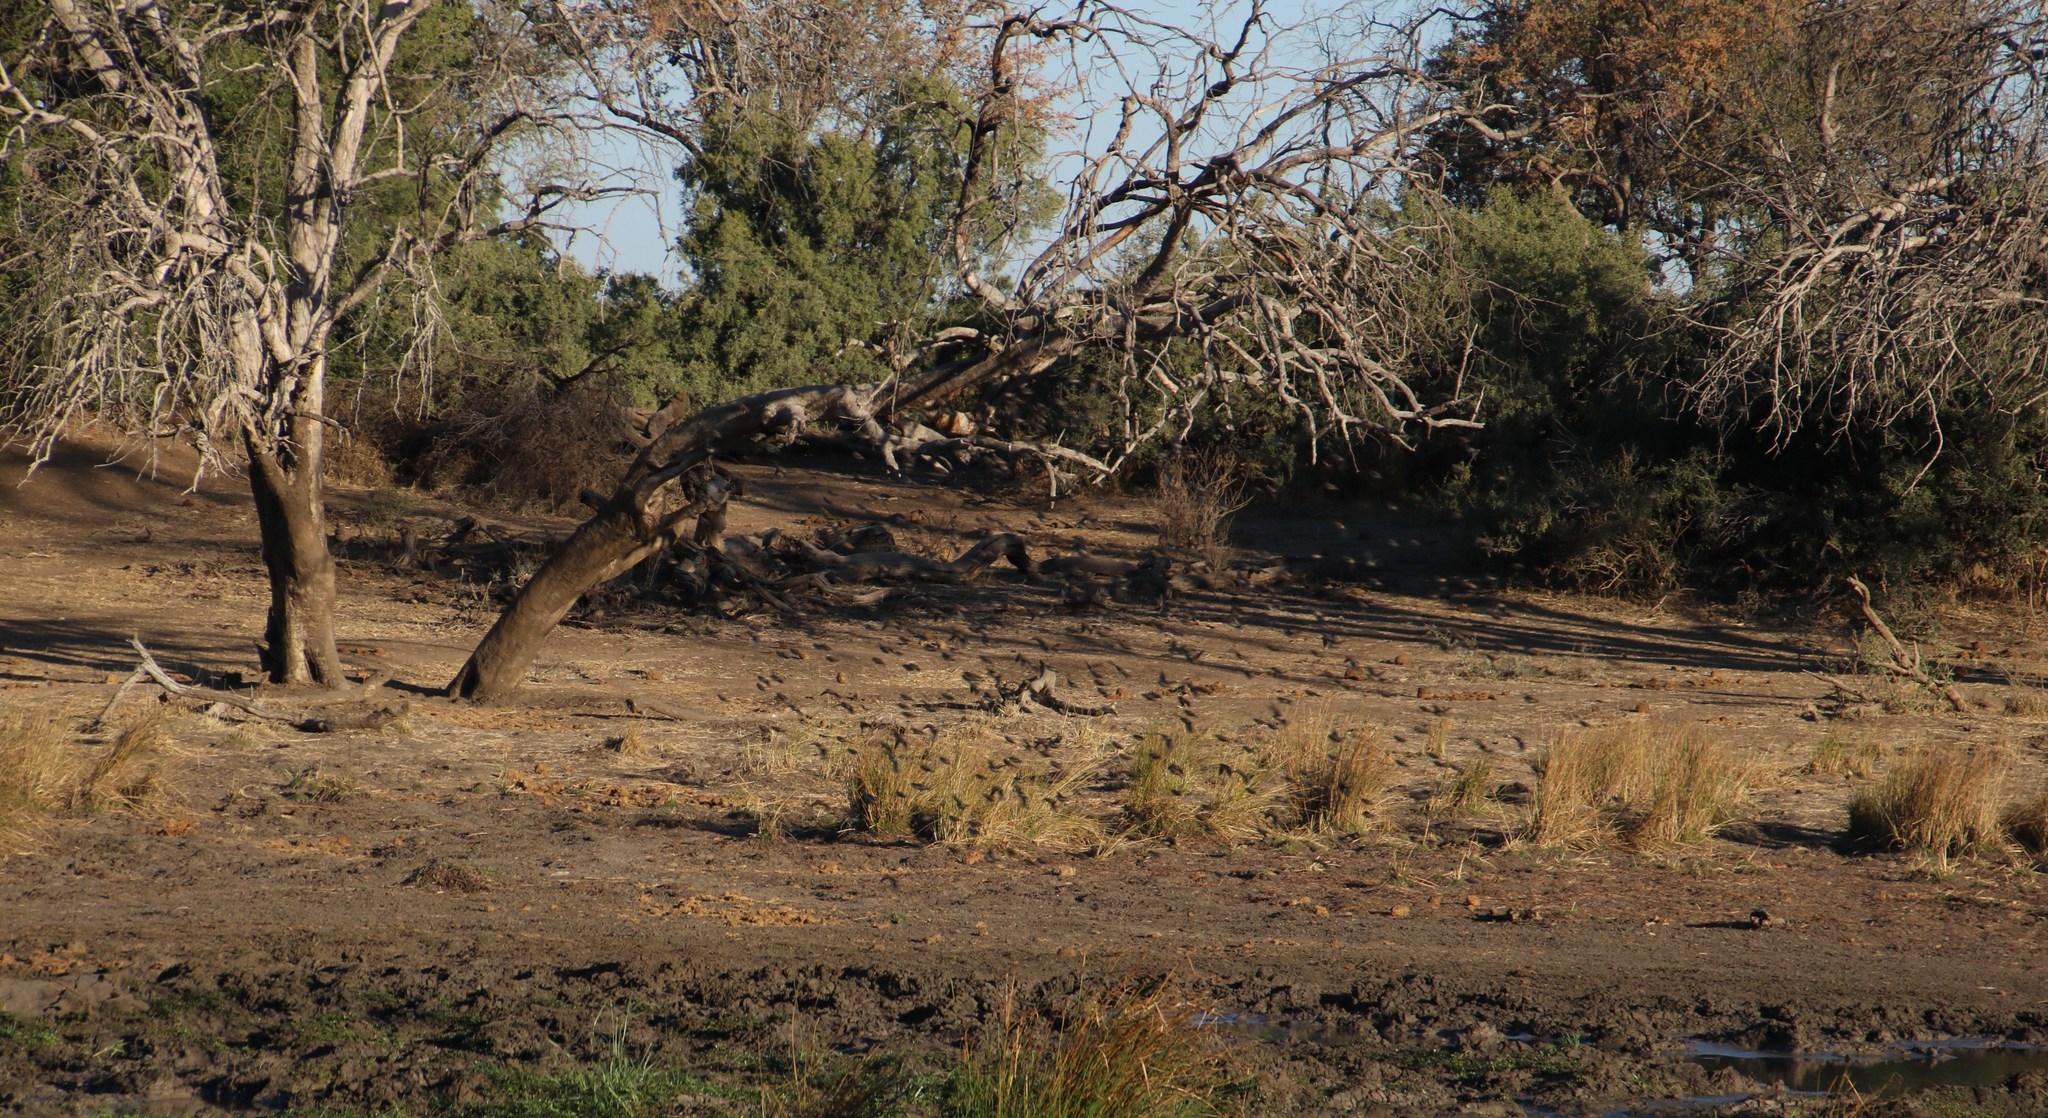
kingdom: Animalia
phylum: Chordata
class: Aves
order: Passeriformes
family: Ploceidae
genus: Quelea
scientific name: Quelea quelea
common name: Red-billed quelea
